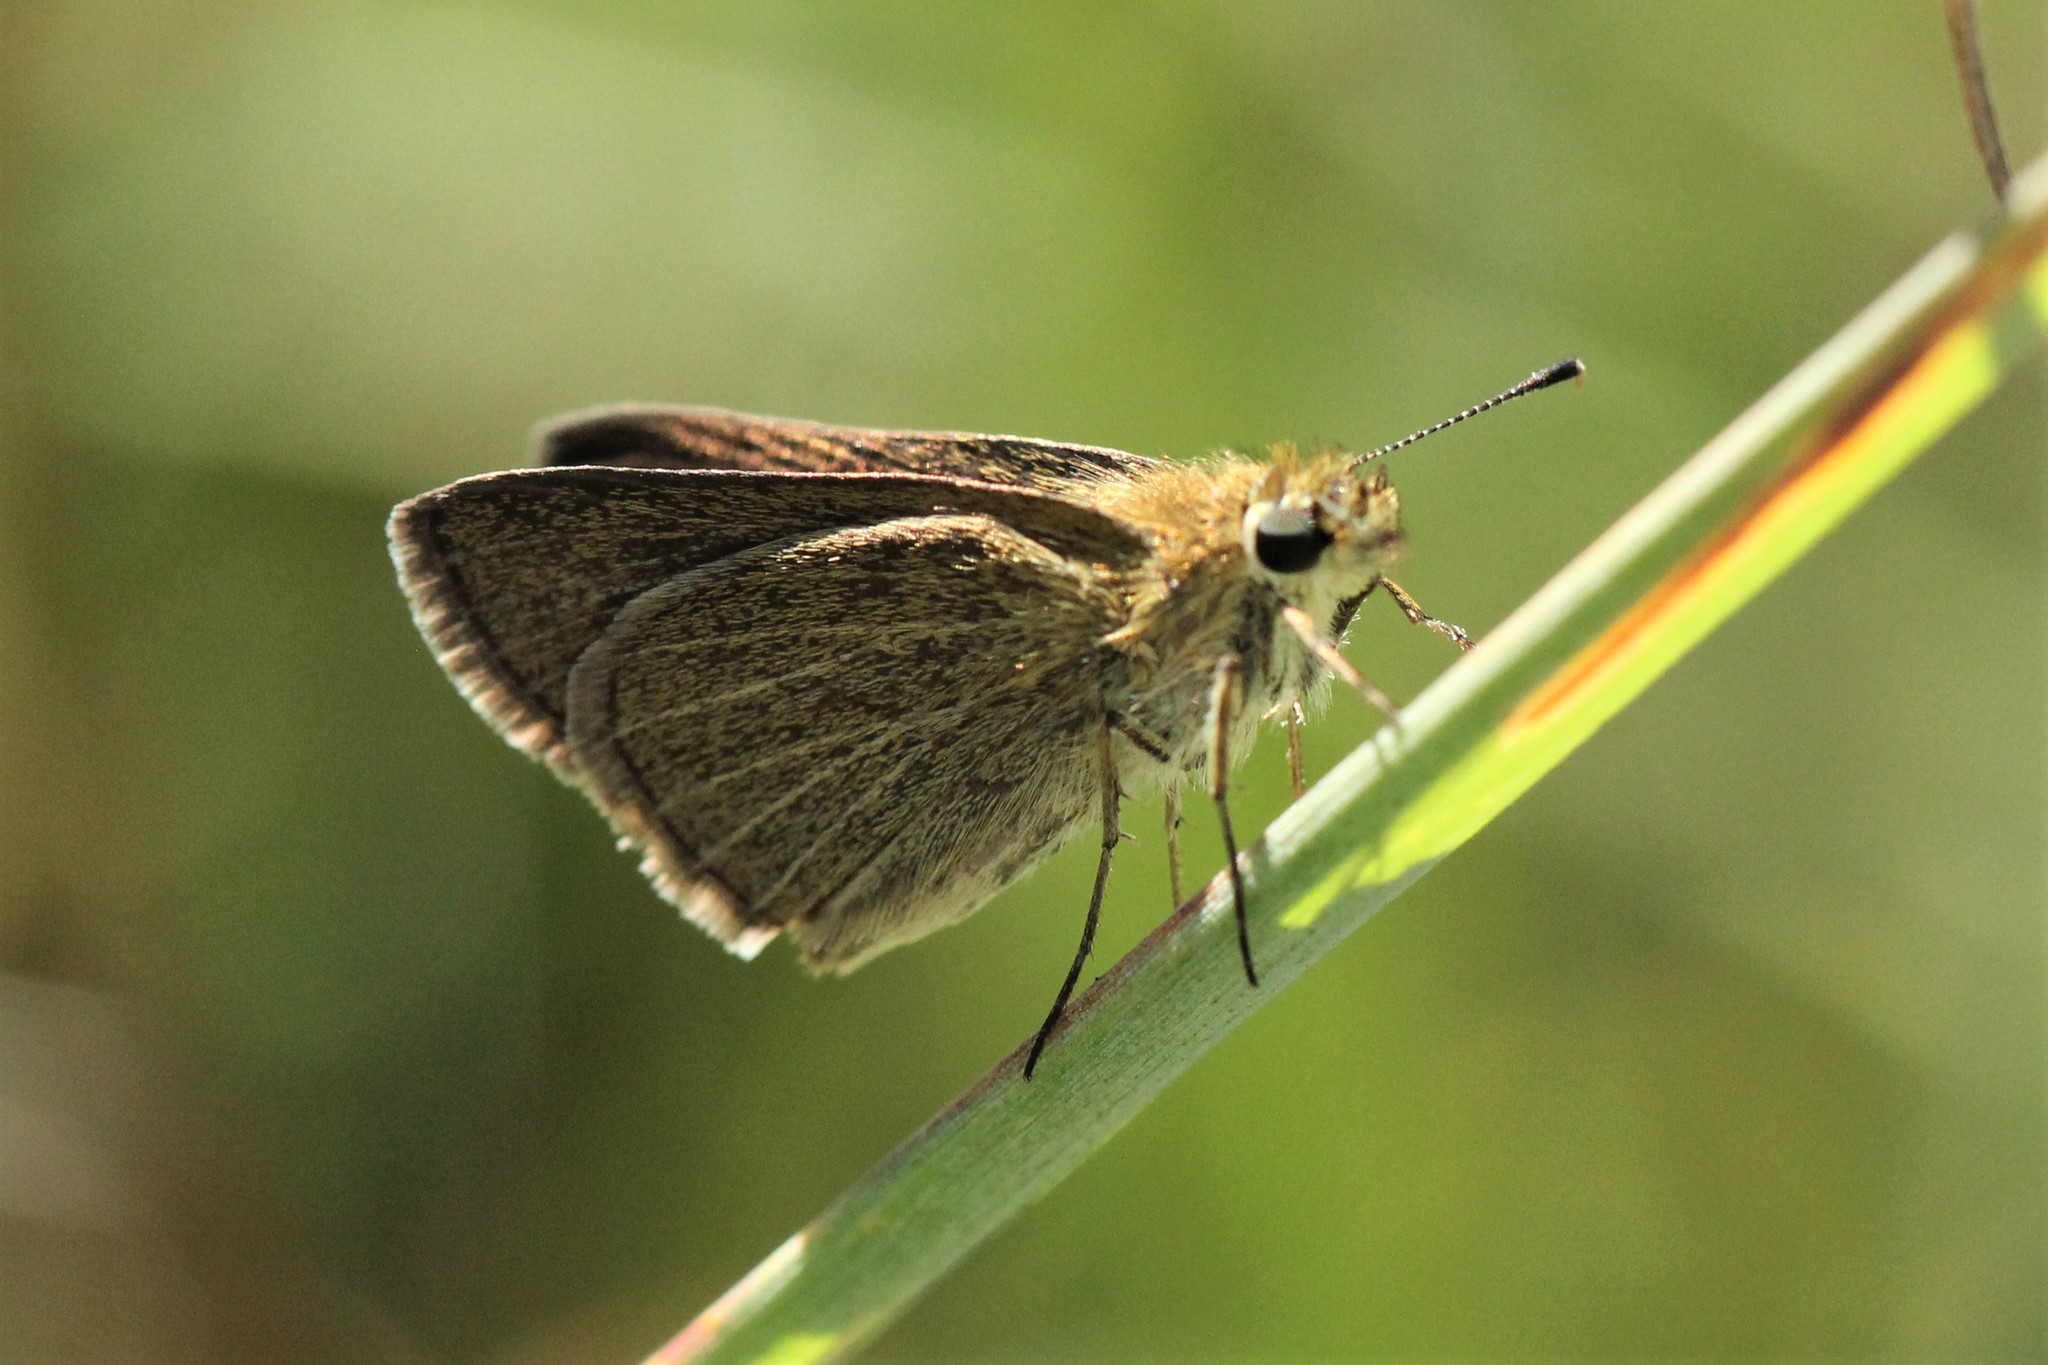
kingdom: Animalia
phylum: Arthropoda
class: Insecta
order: Lepidoptera
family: Hesperiidae
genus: Nastra
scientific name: Nastra lherminier
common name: Swarthy skipper
